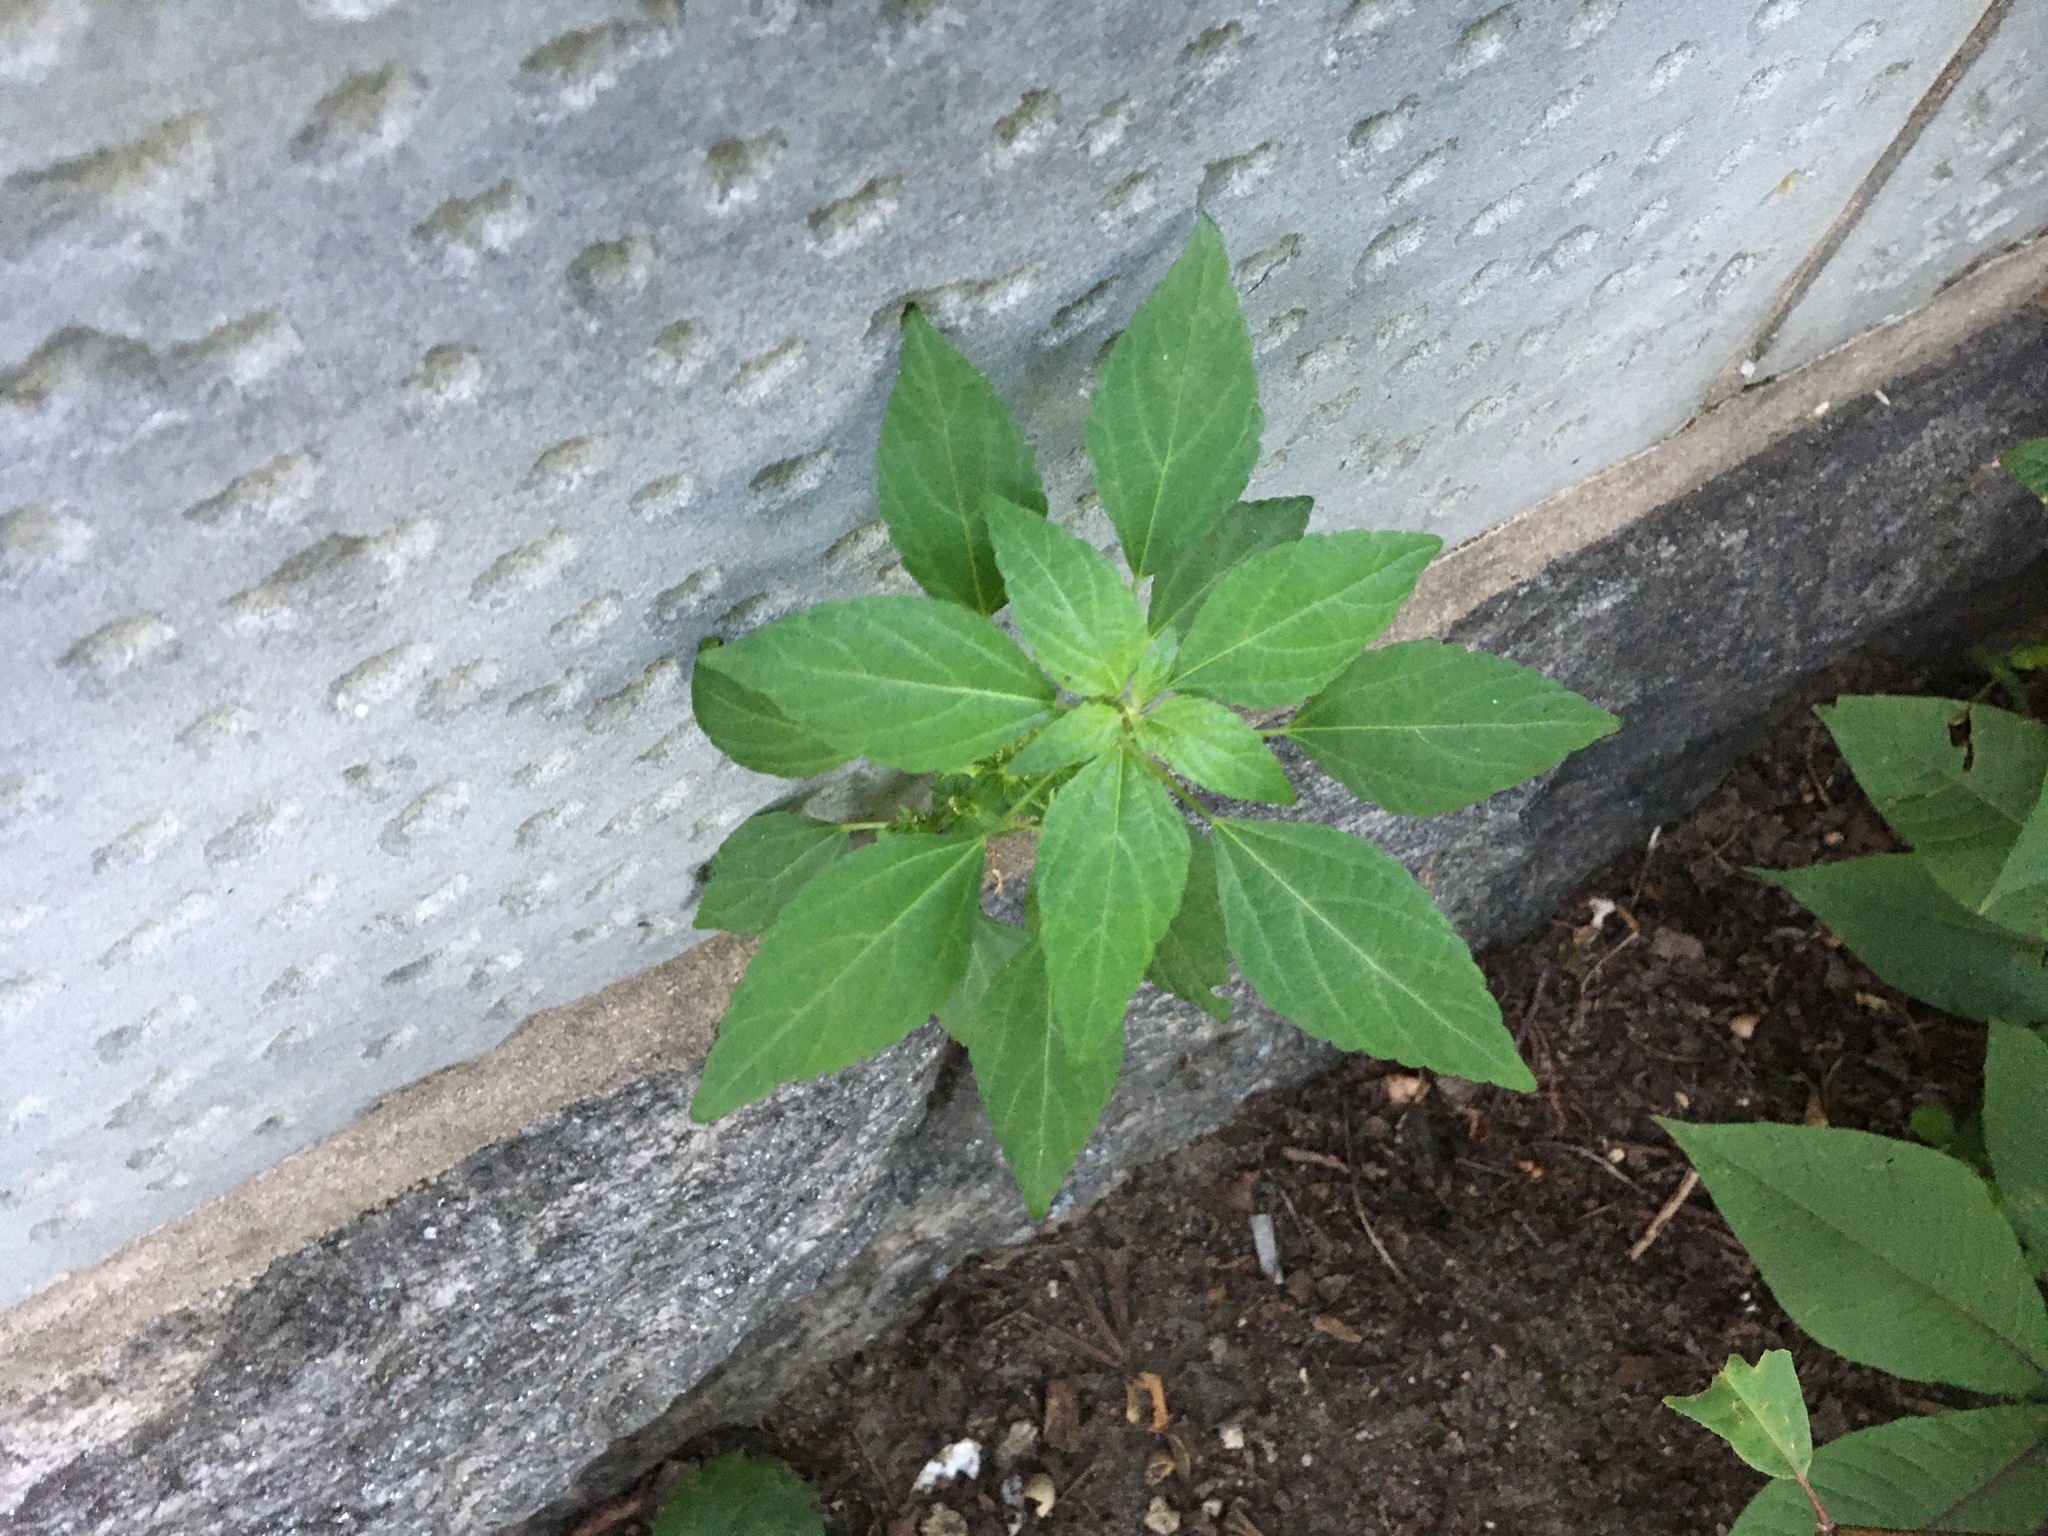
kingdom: Plantae
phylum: Tracheophyta
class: Magnoliopsida
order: Malpighiales
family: Euphorbiaceae
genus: Acalypha
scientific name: Acalypha rhomboidea
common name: Rhombic copperleaf
